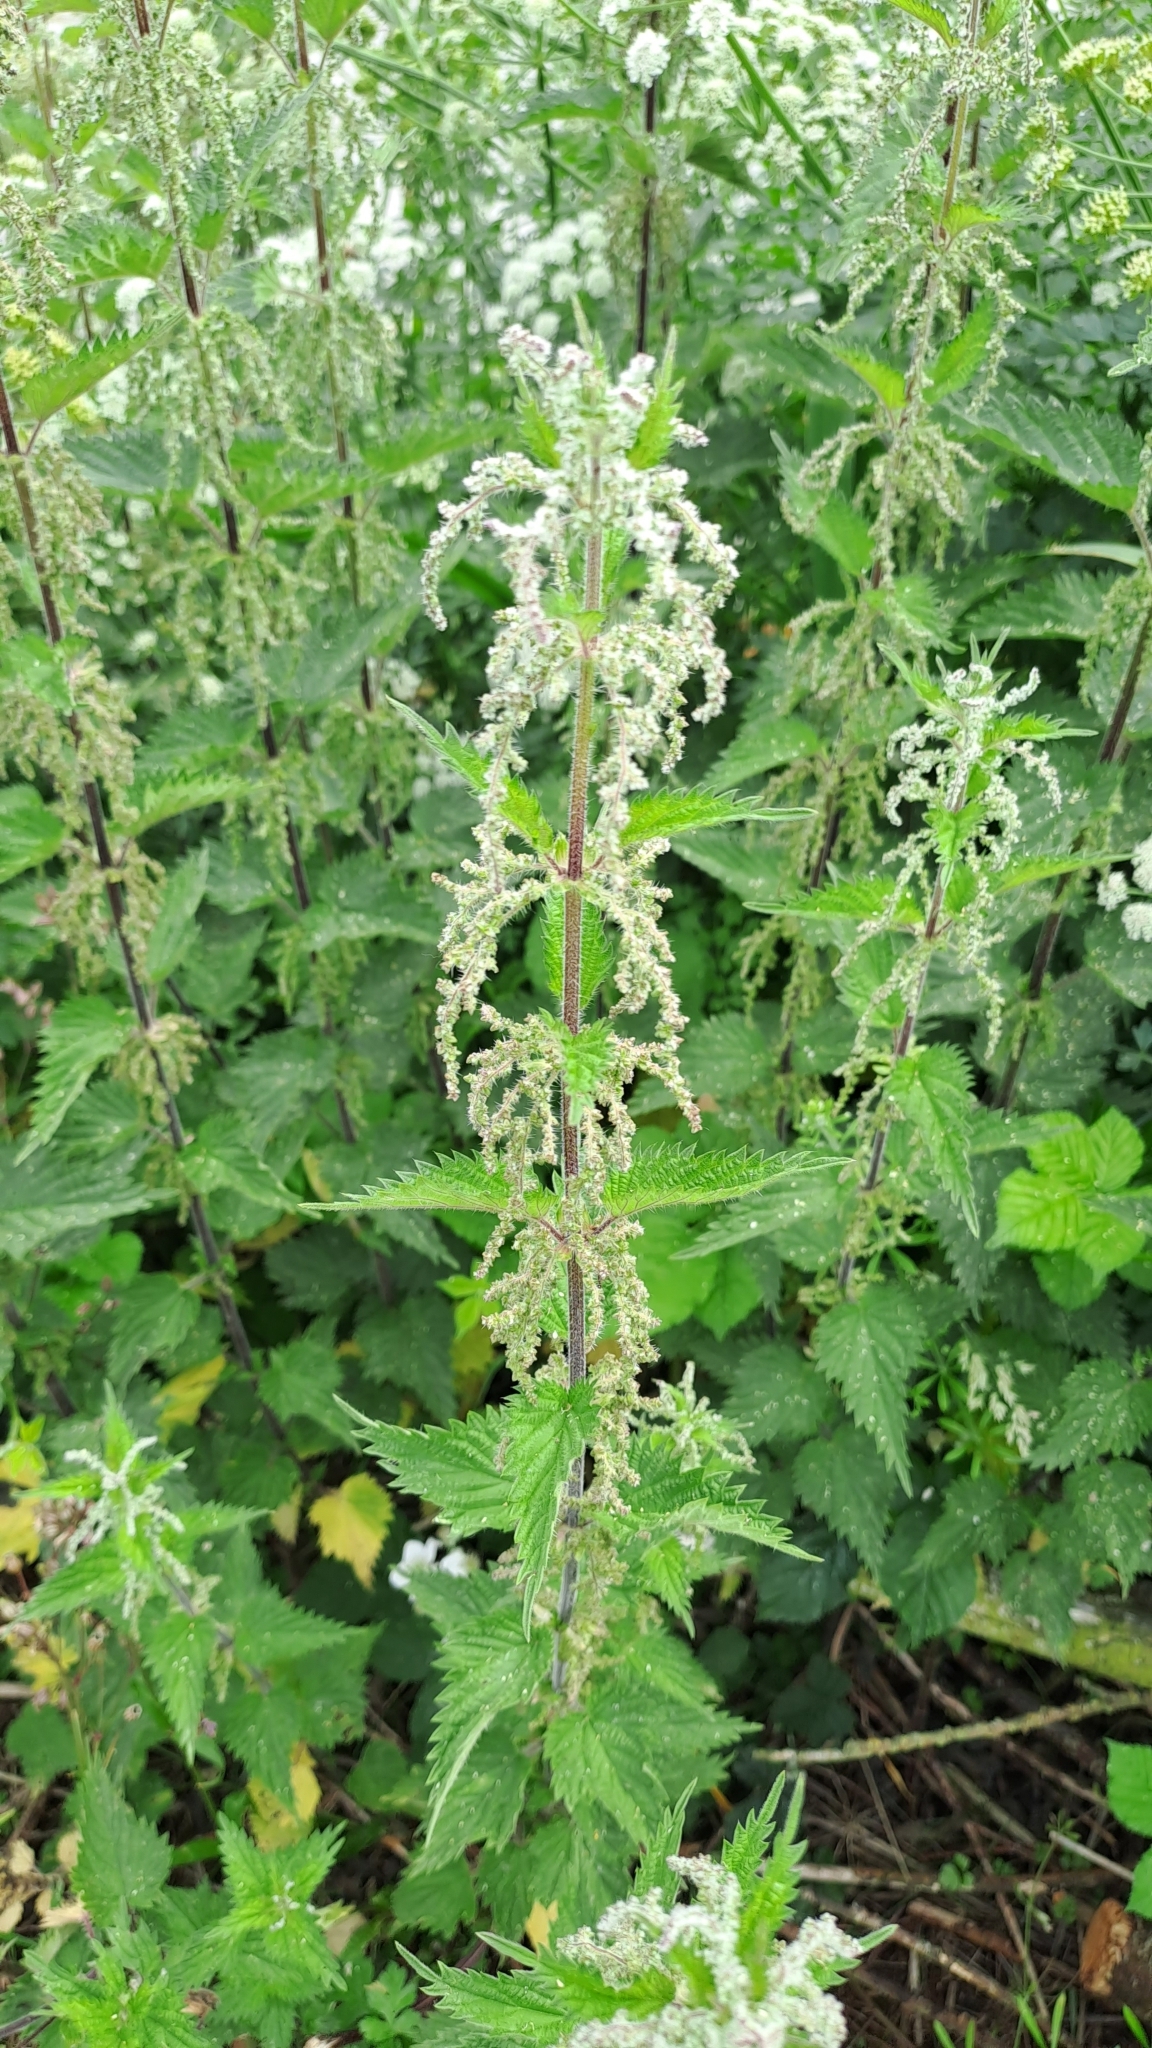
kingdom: Plantae
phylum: Tracheophyta
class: Magnoliopsida
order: Rosales
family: Urticaceae
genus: Urtica
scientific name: Urtica dioica
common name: Common nettle
